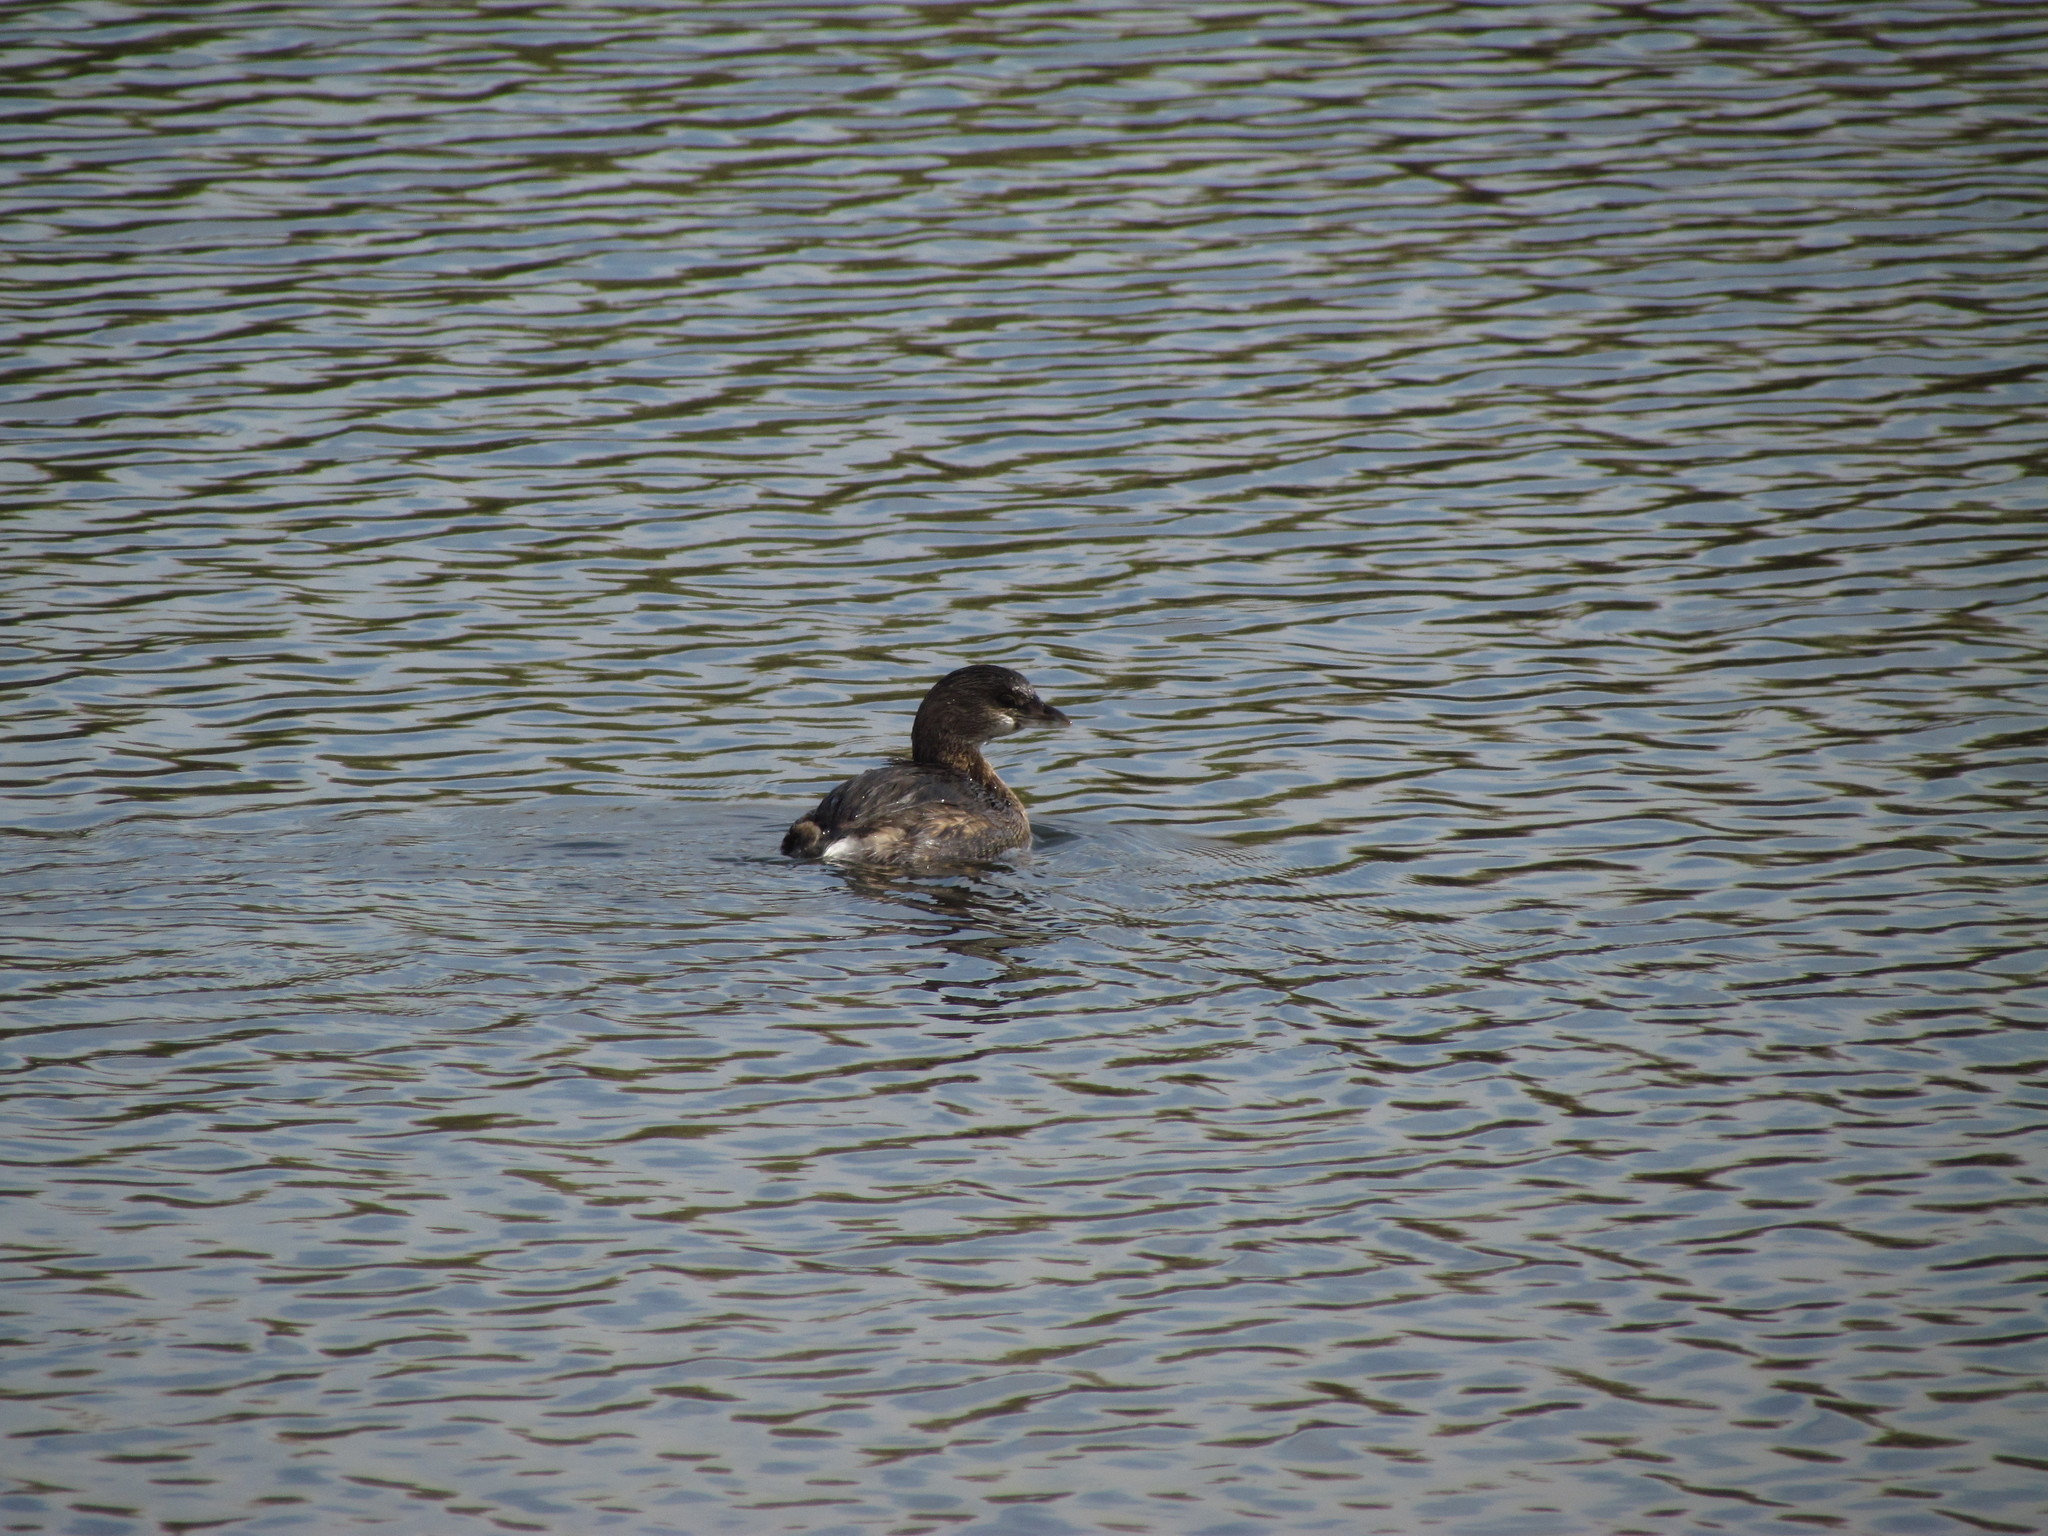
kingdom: Animalia
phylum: Chordata
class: Aves
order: Podicipediformes
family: Podicipedidae
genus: Podilymbus
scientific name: Podilymbus podiceps
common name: Pied-billed grebe
